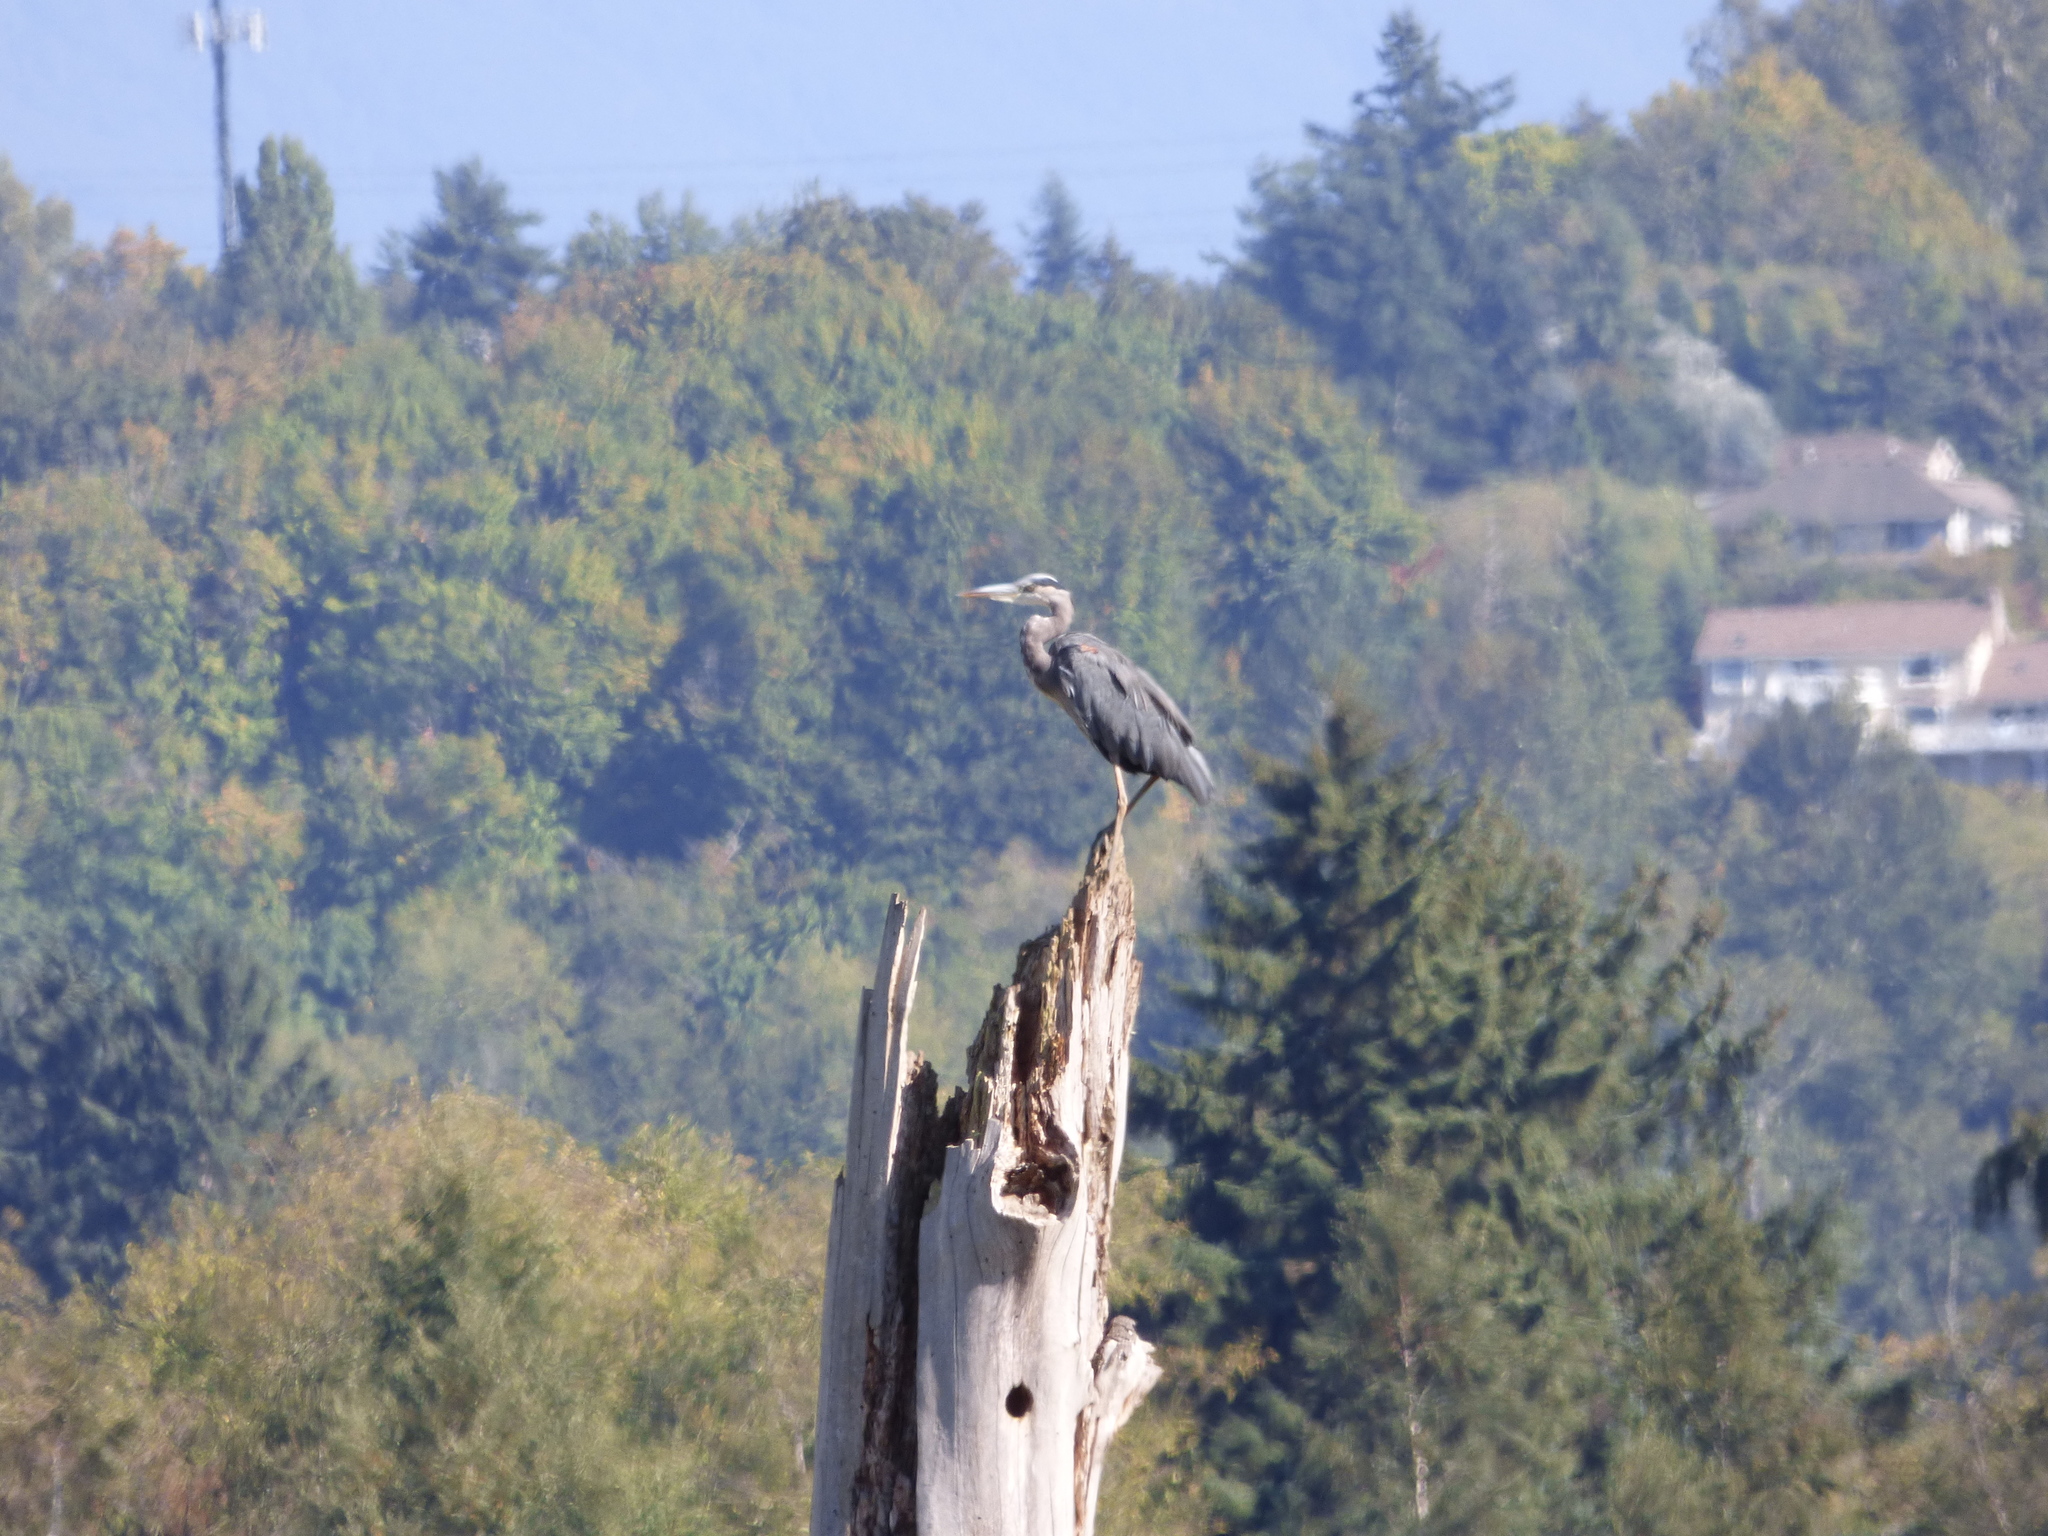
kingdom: Animalia
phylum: Chordata
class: Aves
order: Pelecaniformes
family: Ardeidae
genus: Ardea
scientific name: Ardea herodias
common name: Great blue heron
